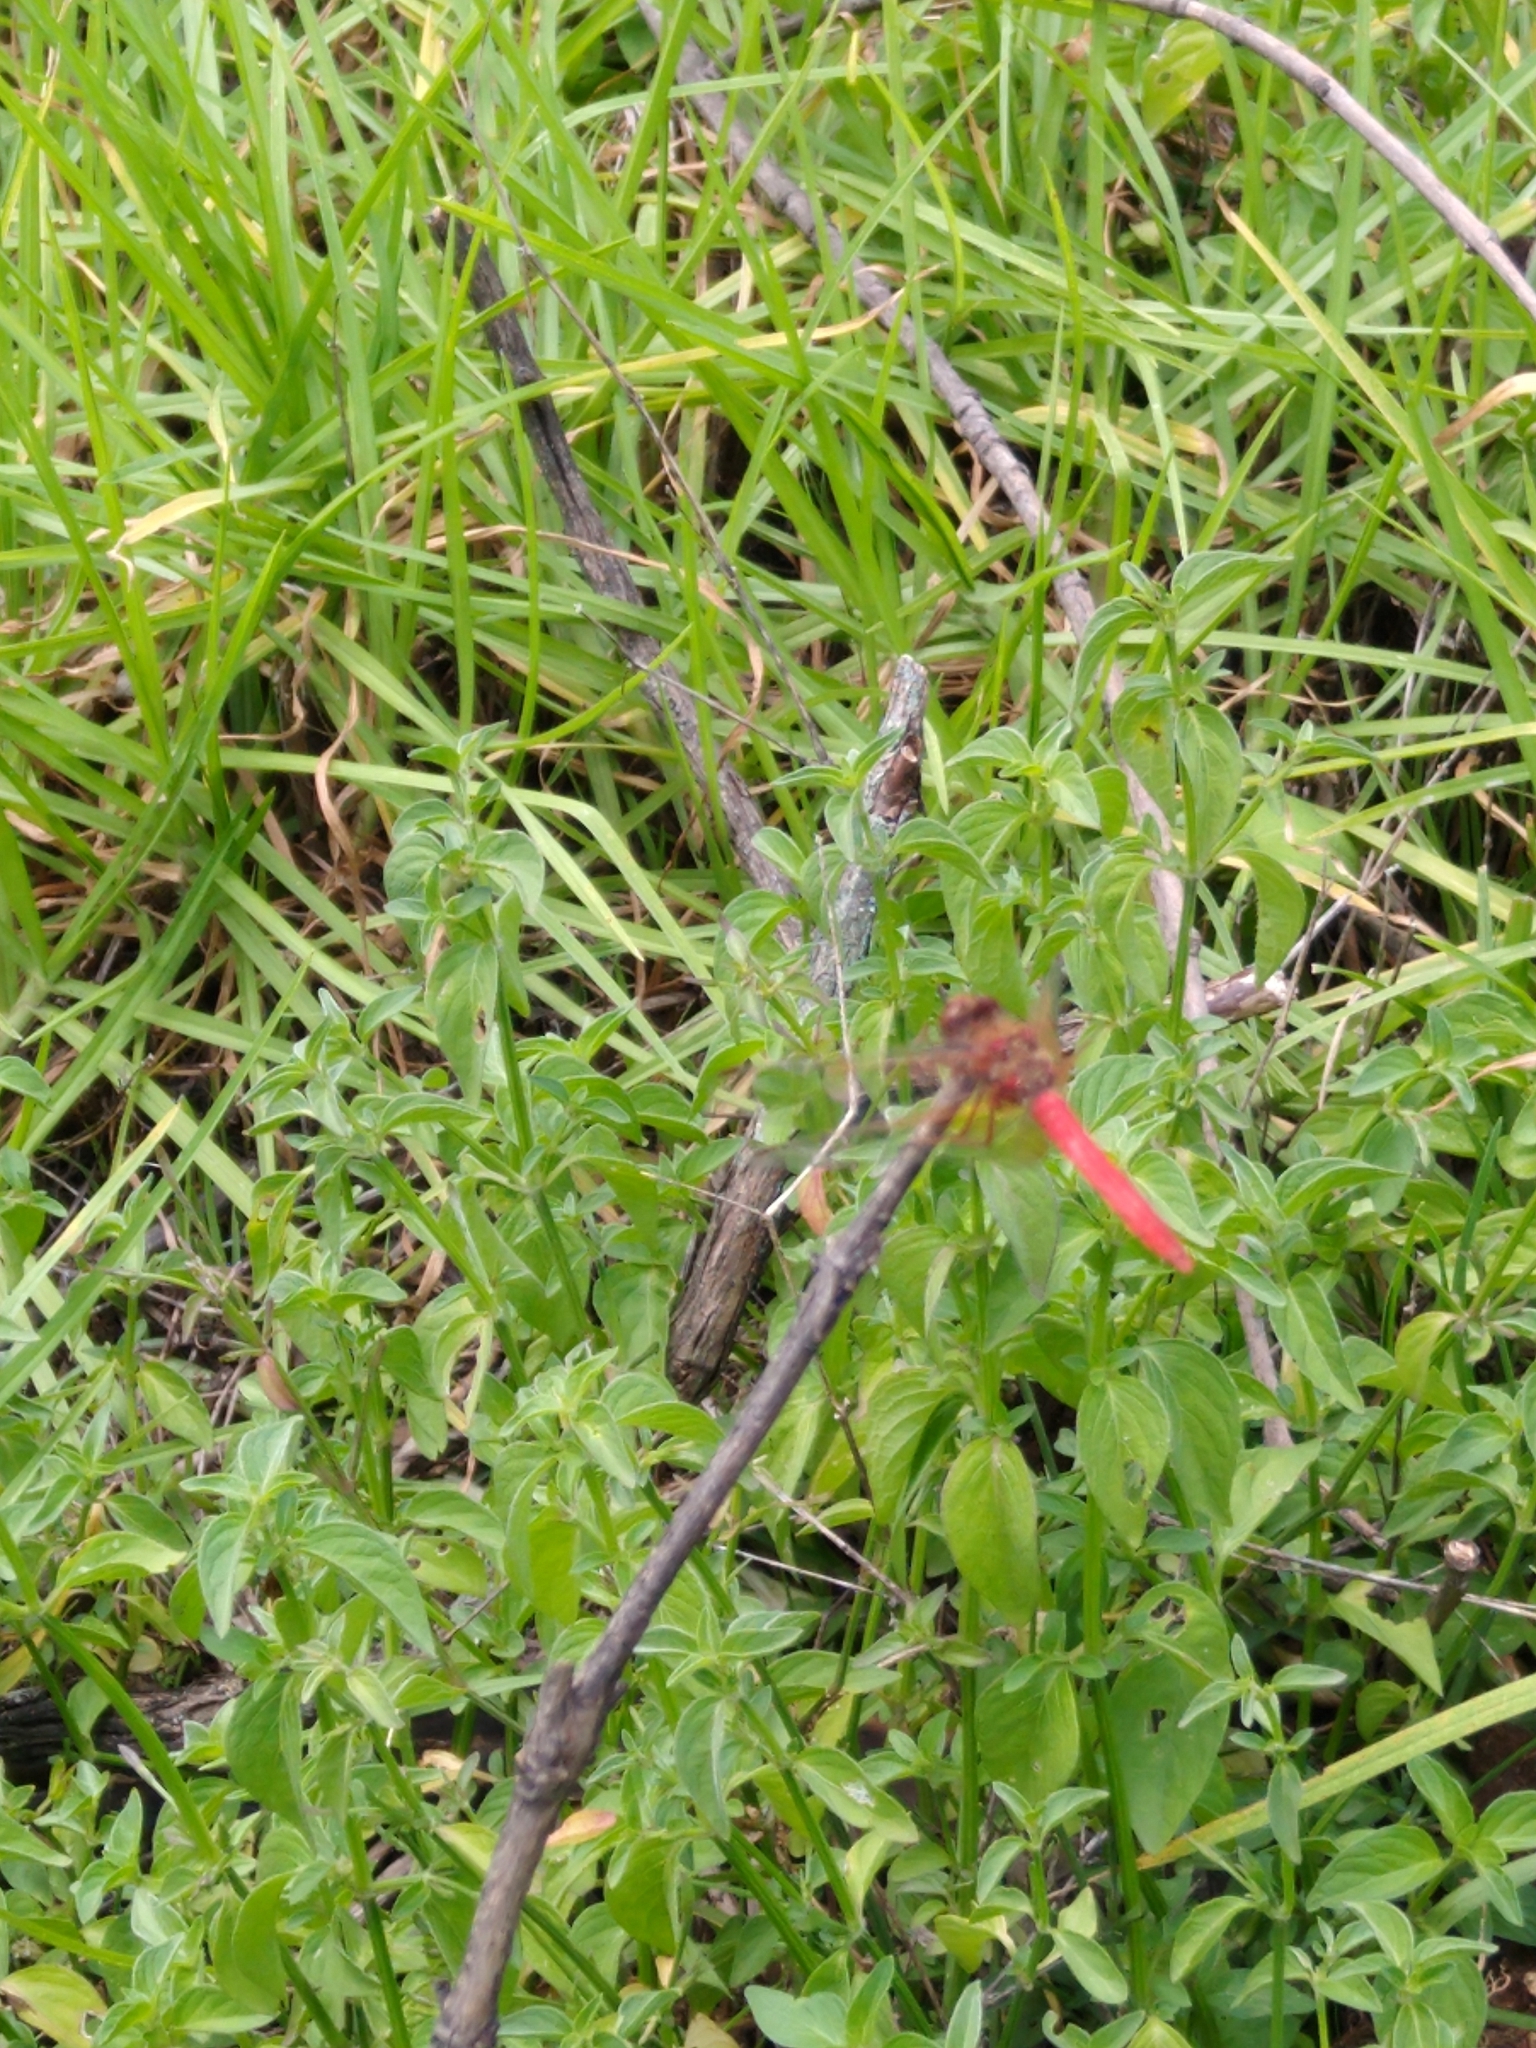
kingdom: Animalia
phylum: Arthropoda
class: Insecta
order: Odonata
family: Libellulidae
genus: Sympetrum
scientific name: Sympetrum illotum
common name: Cardinal meadowhawk
